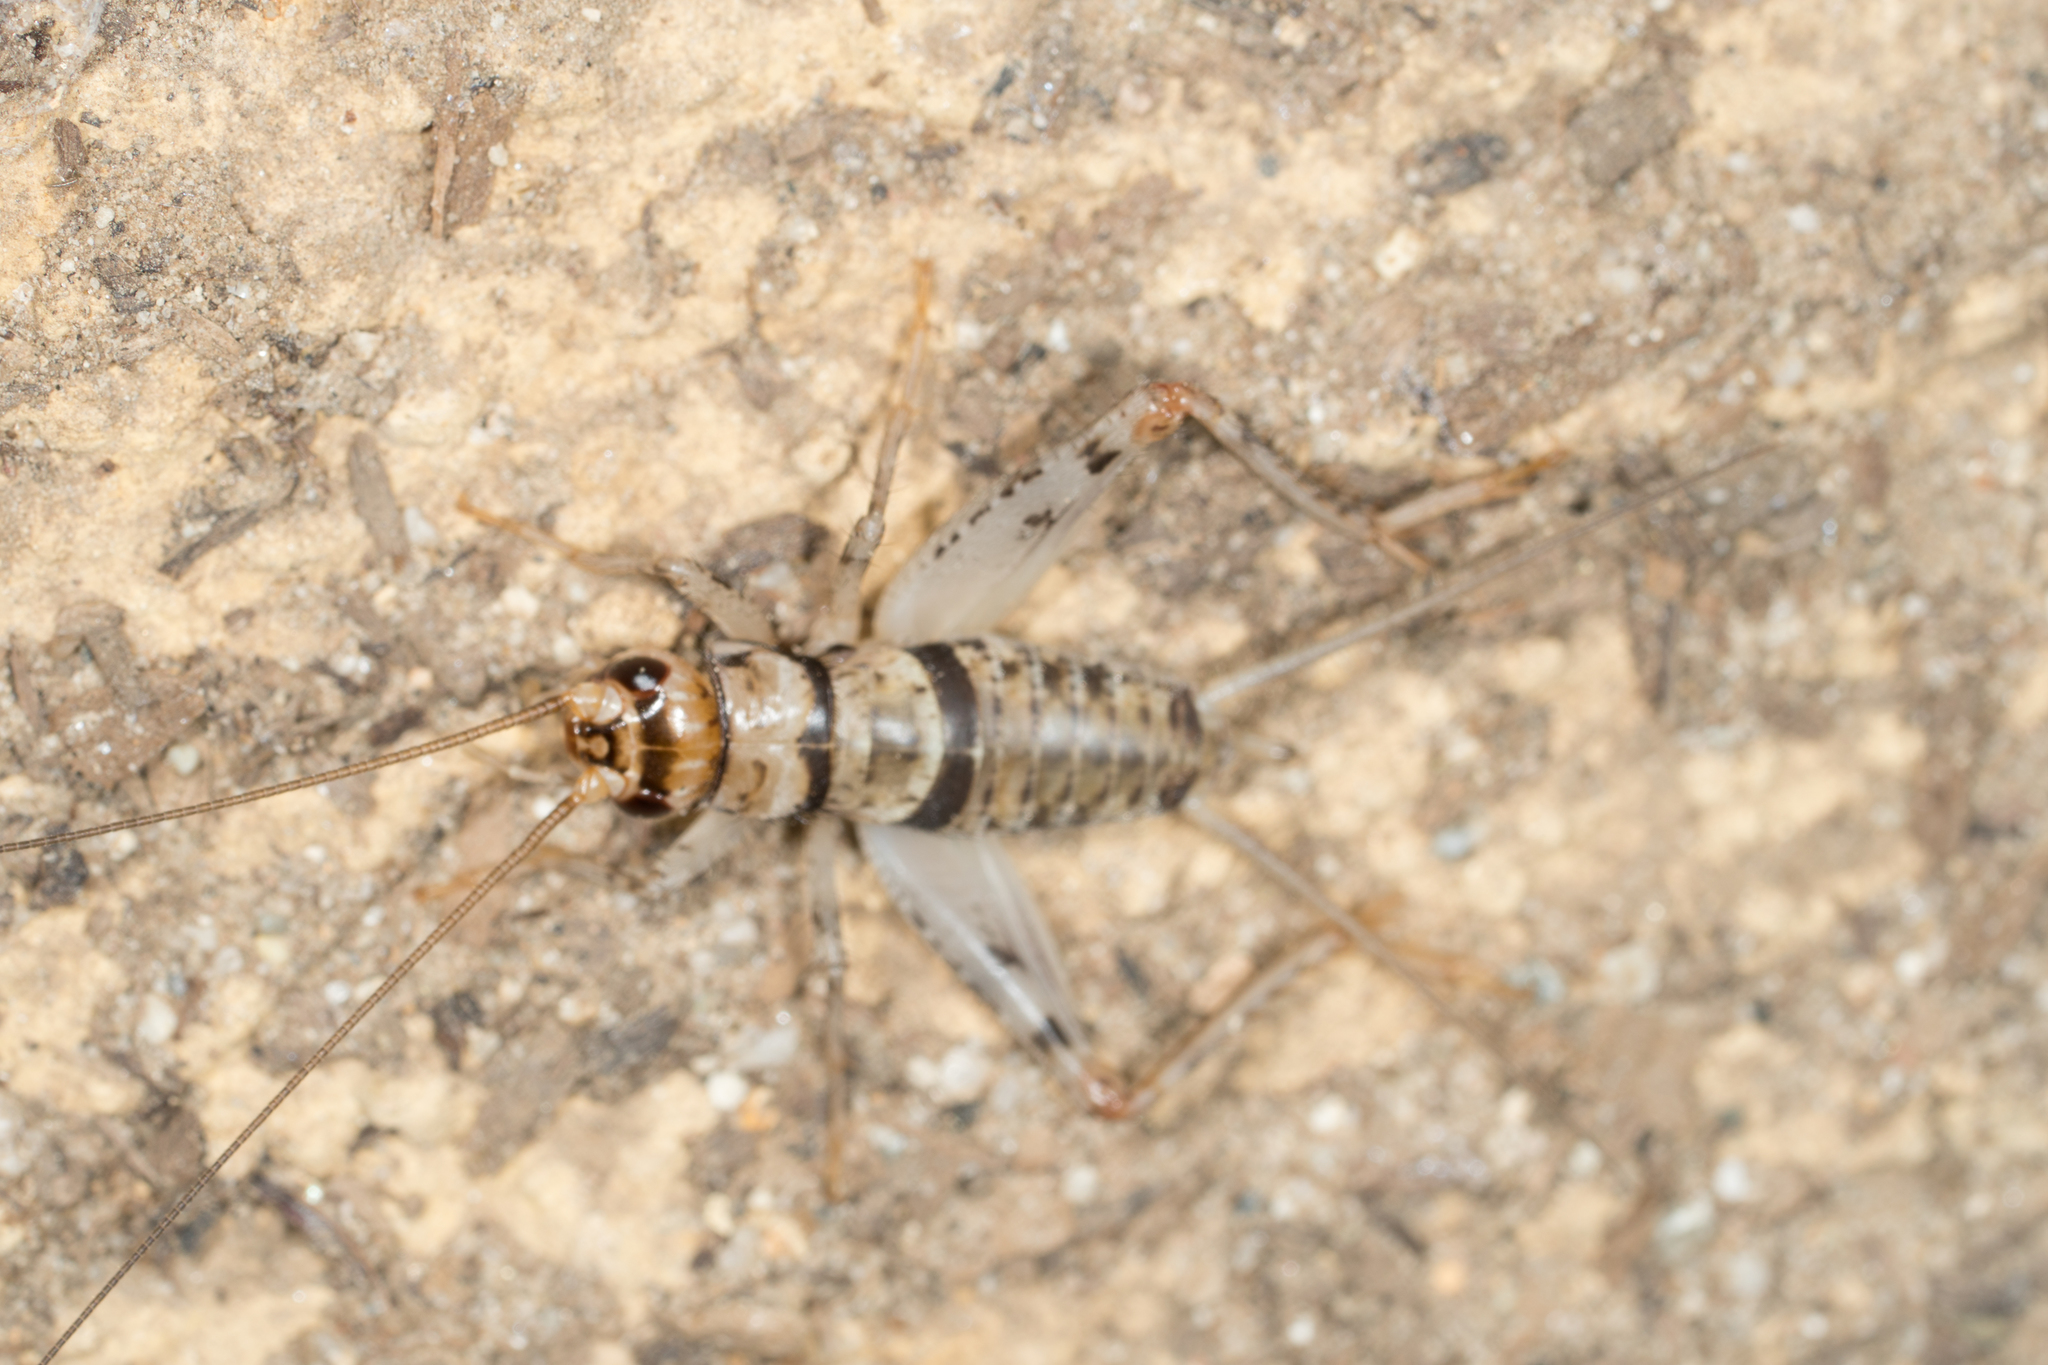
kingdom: Animalia
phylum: Arthropoda
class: Insecta
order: Orthoptera
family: Gryllidae
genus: Gryllodes
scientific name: Gryllodes sigillatus
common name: Tropical house cricket
